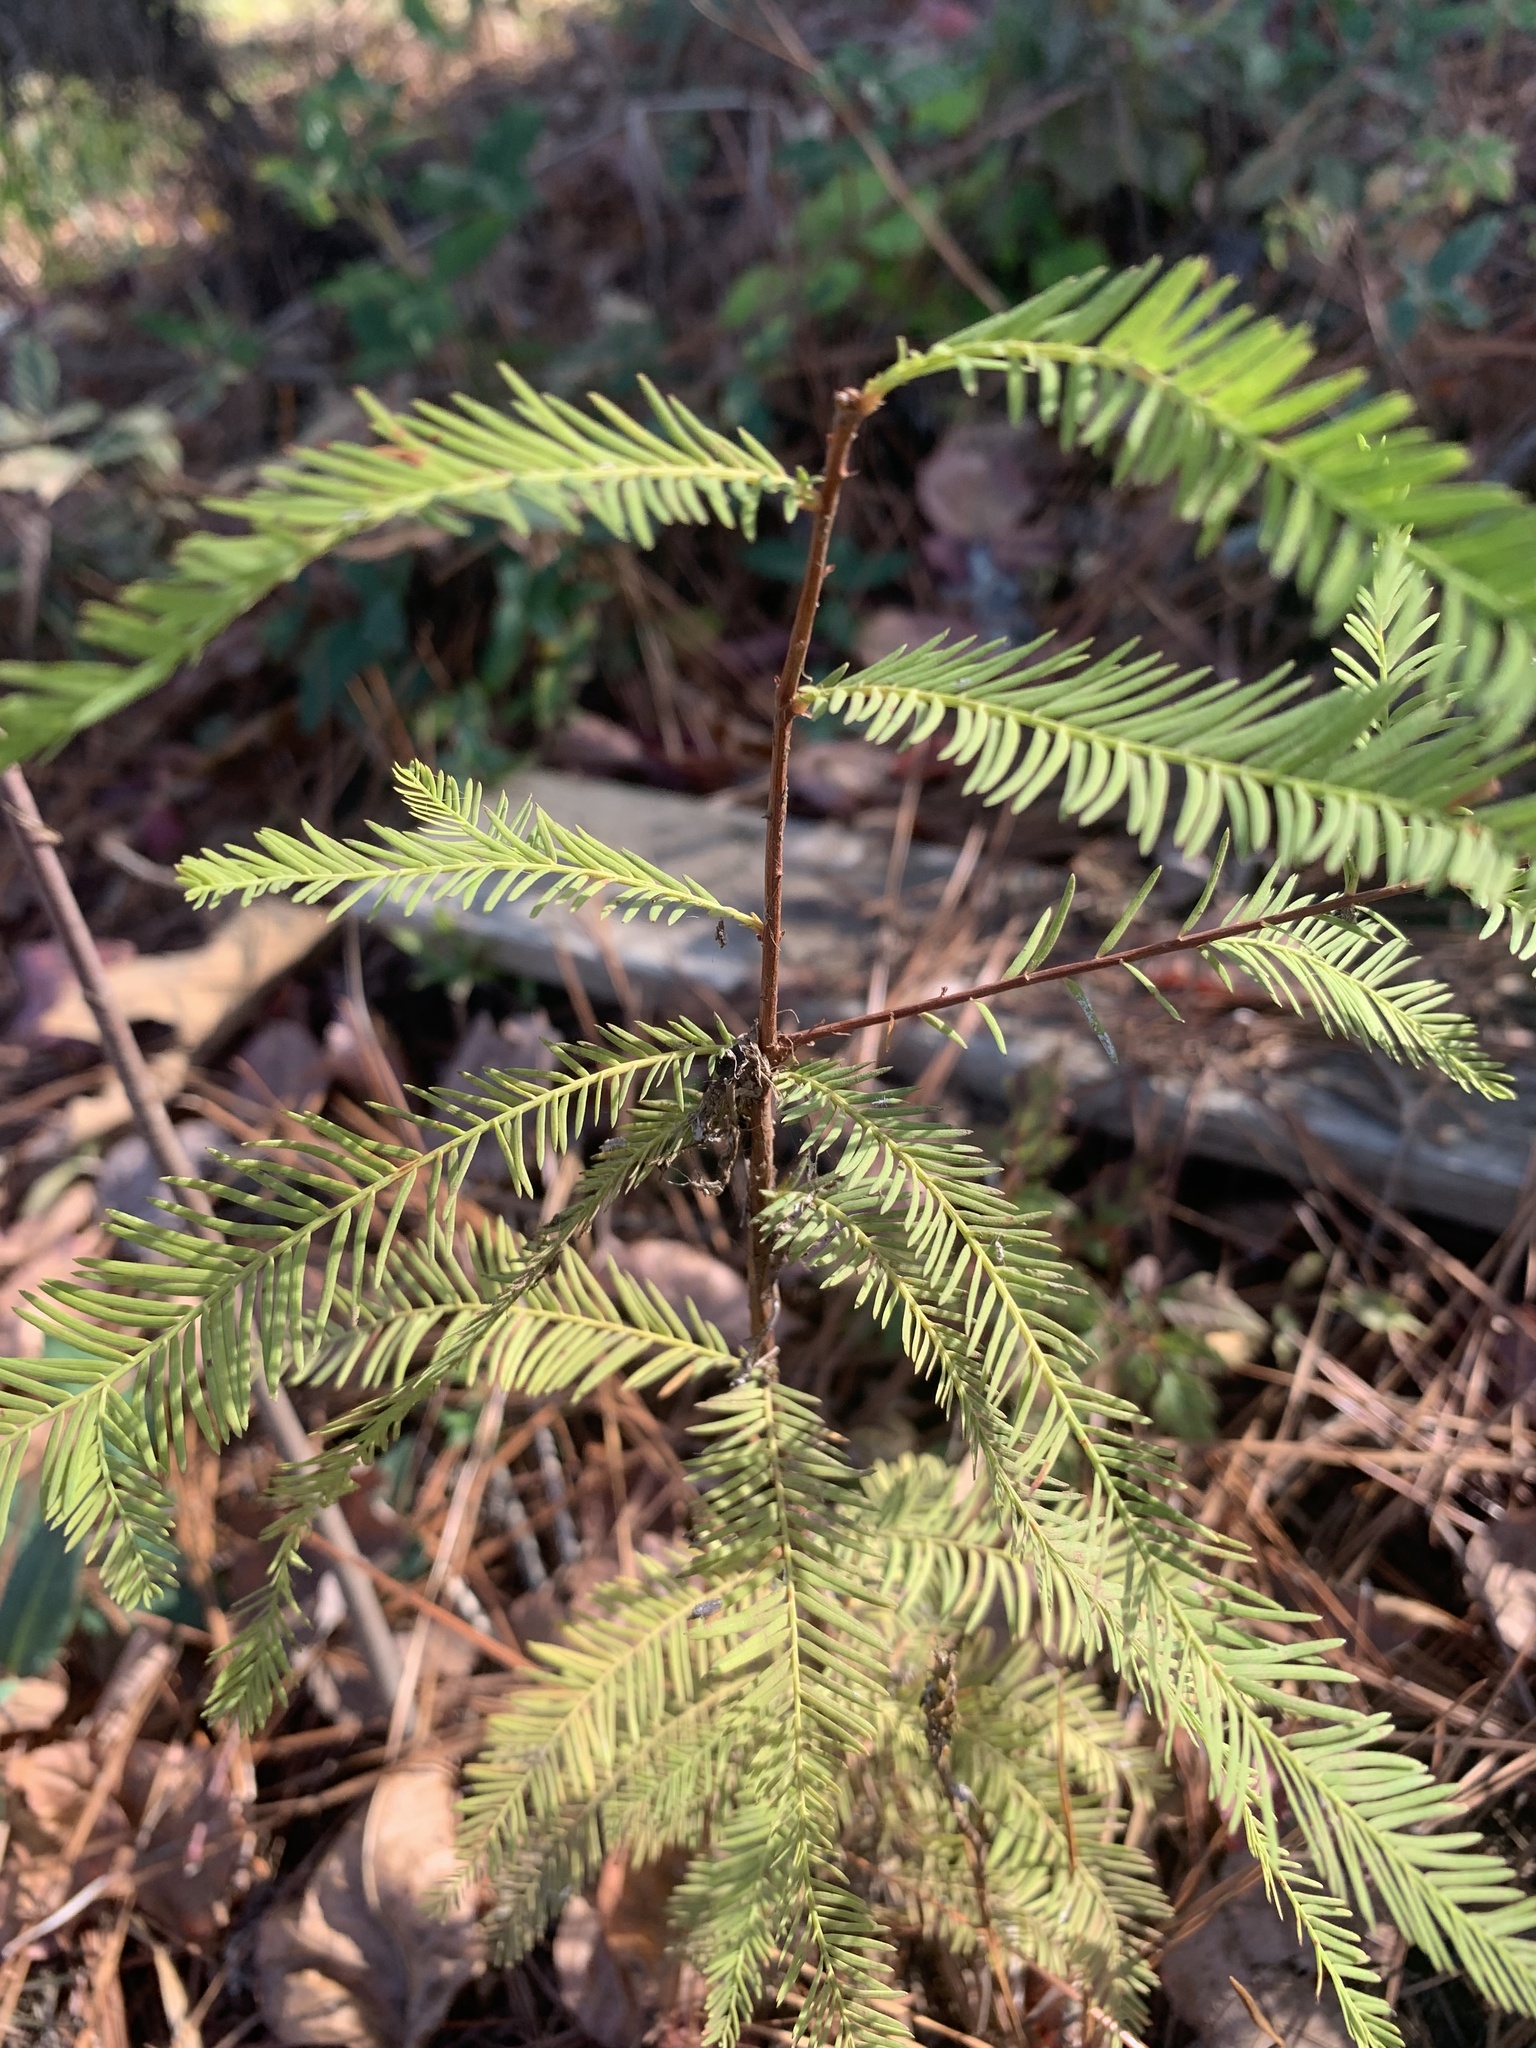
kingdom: Plantae
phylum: Tracheophyta
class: Pinopsida
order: Pinales
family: Cupressaceae
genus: Taxodium
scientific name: Taxodium distichum
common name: Bald cypress
